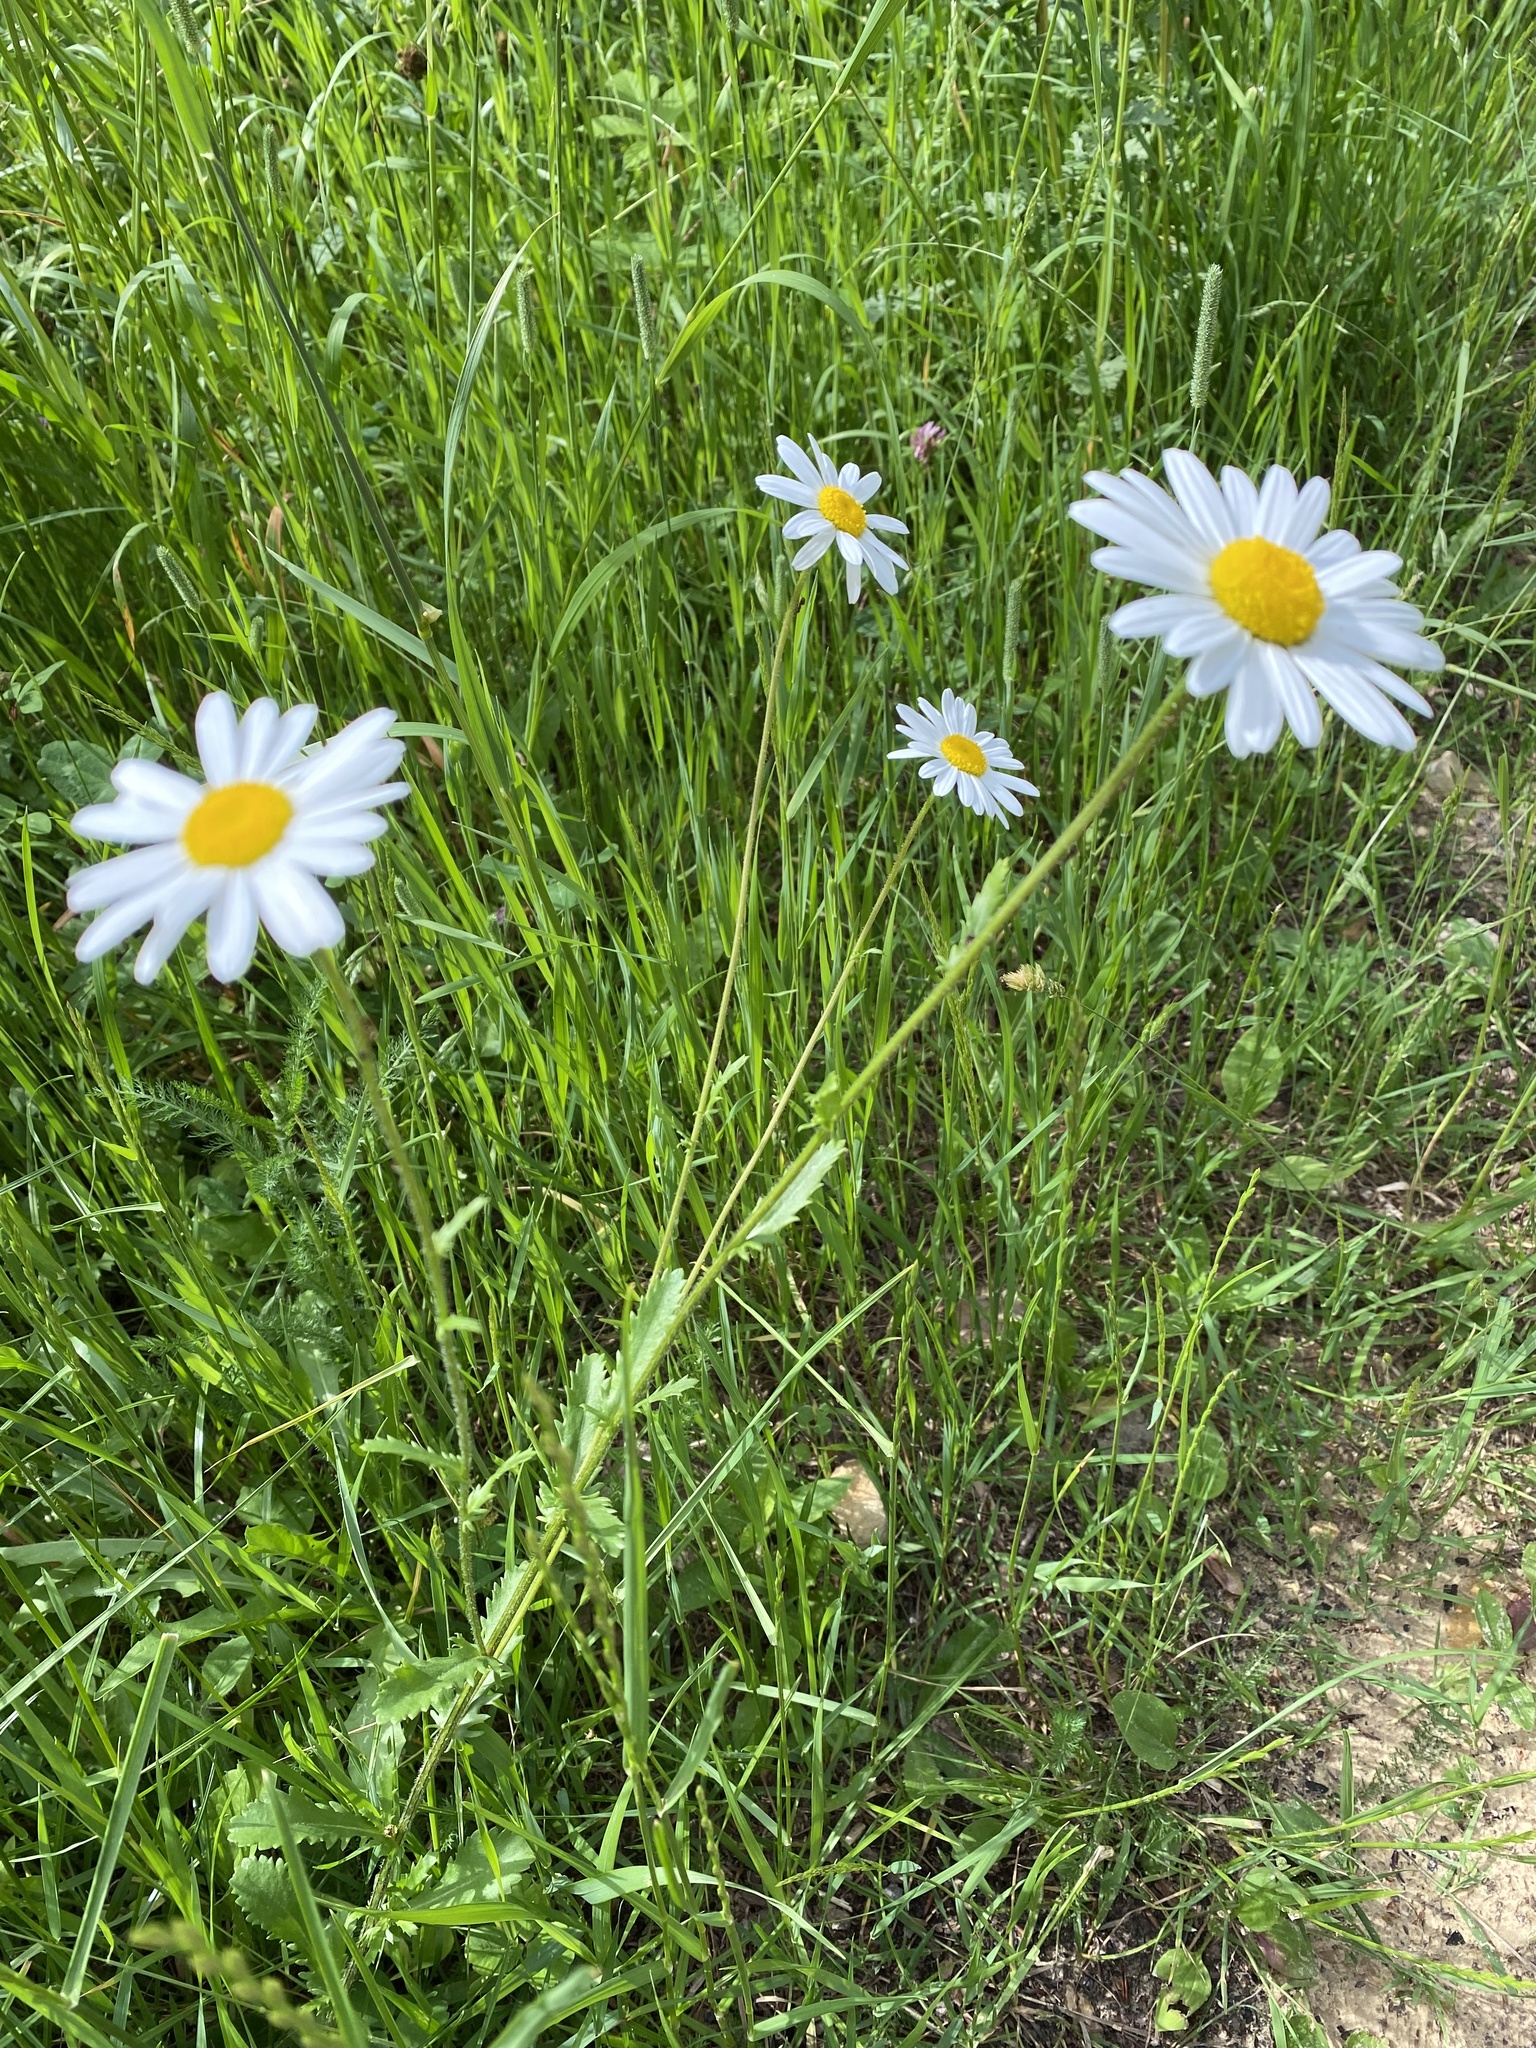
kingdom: Plantae
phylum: Tracheophyta
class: Magnoliopsida
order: Asterales
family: Asteraceae
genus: Leucanthemum
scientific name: Leucanthemum vulgare
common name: Oxeye daisy
